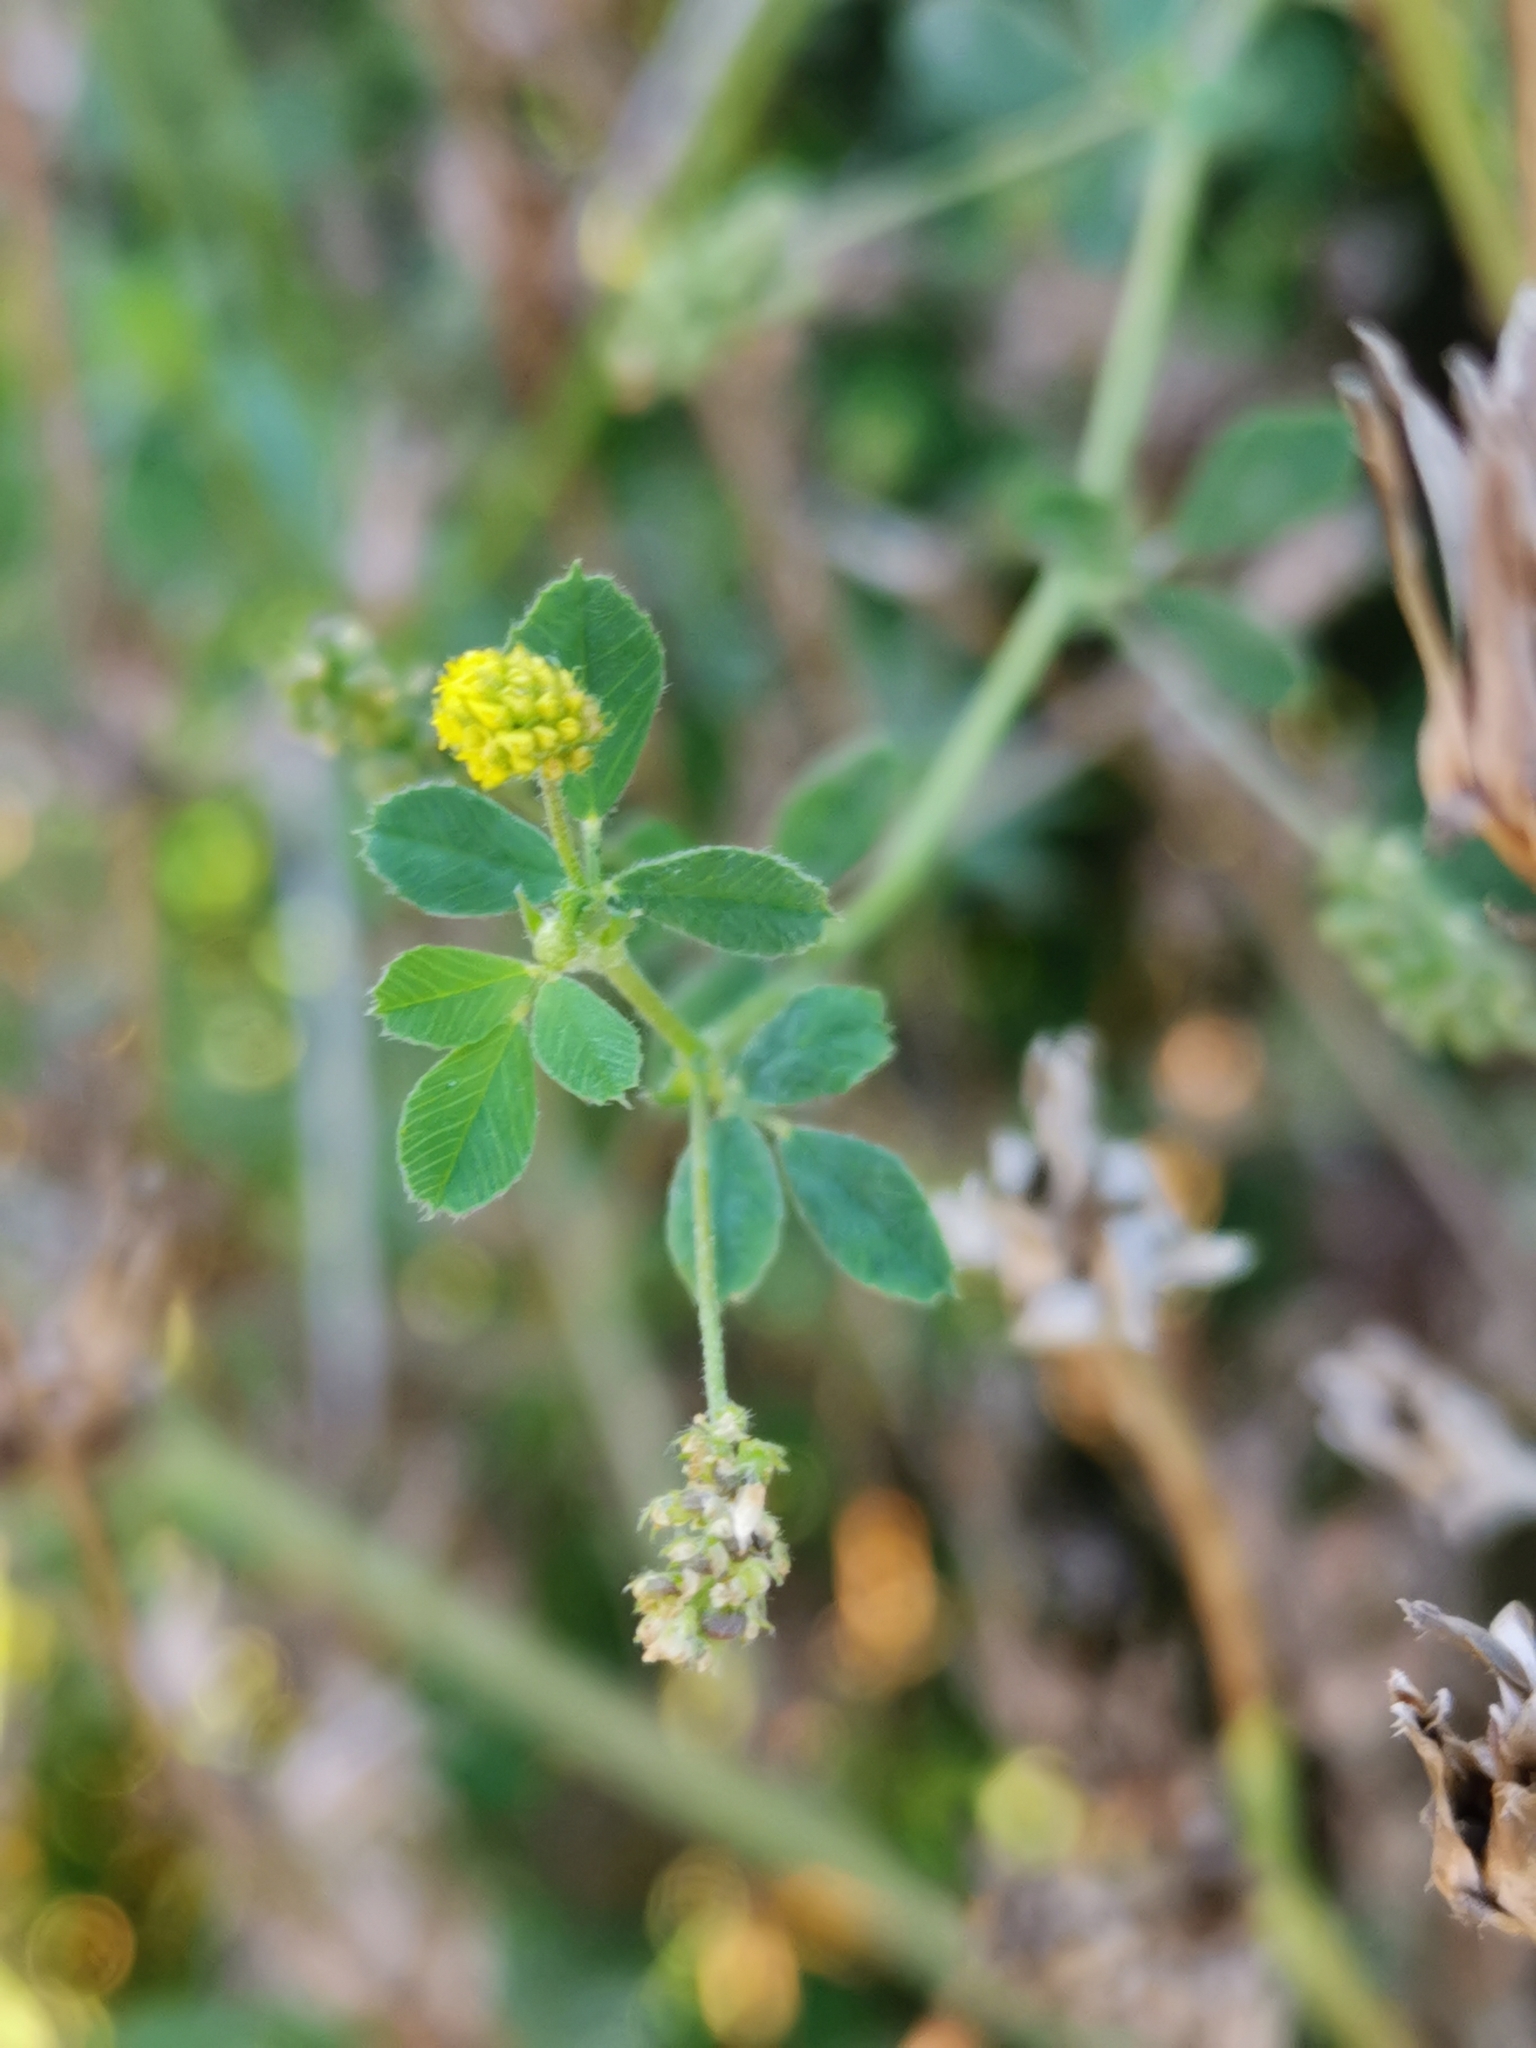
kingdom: Plantae
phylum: Tracheophyta
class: Magnoliopsida
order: Fabales
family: Fabaceae
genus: Medicago
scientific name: Medicago lupulina
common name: Black medick
